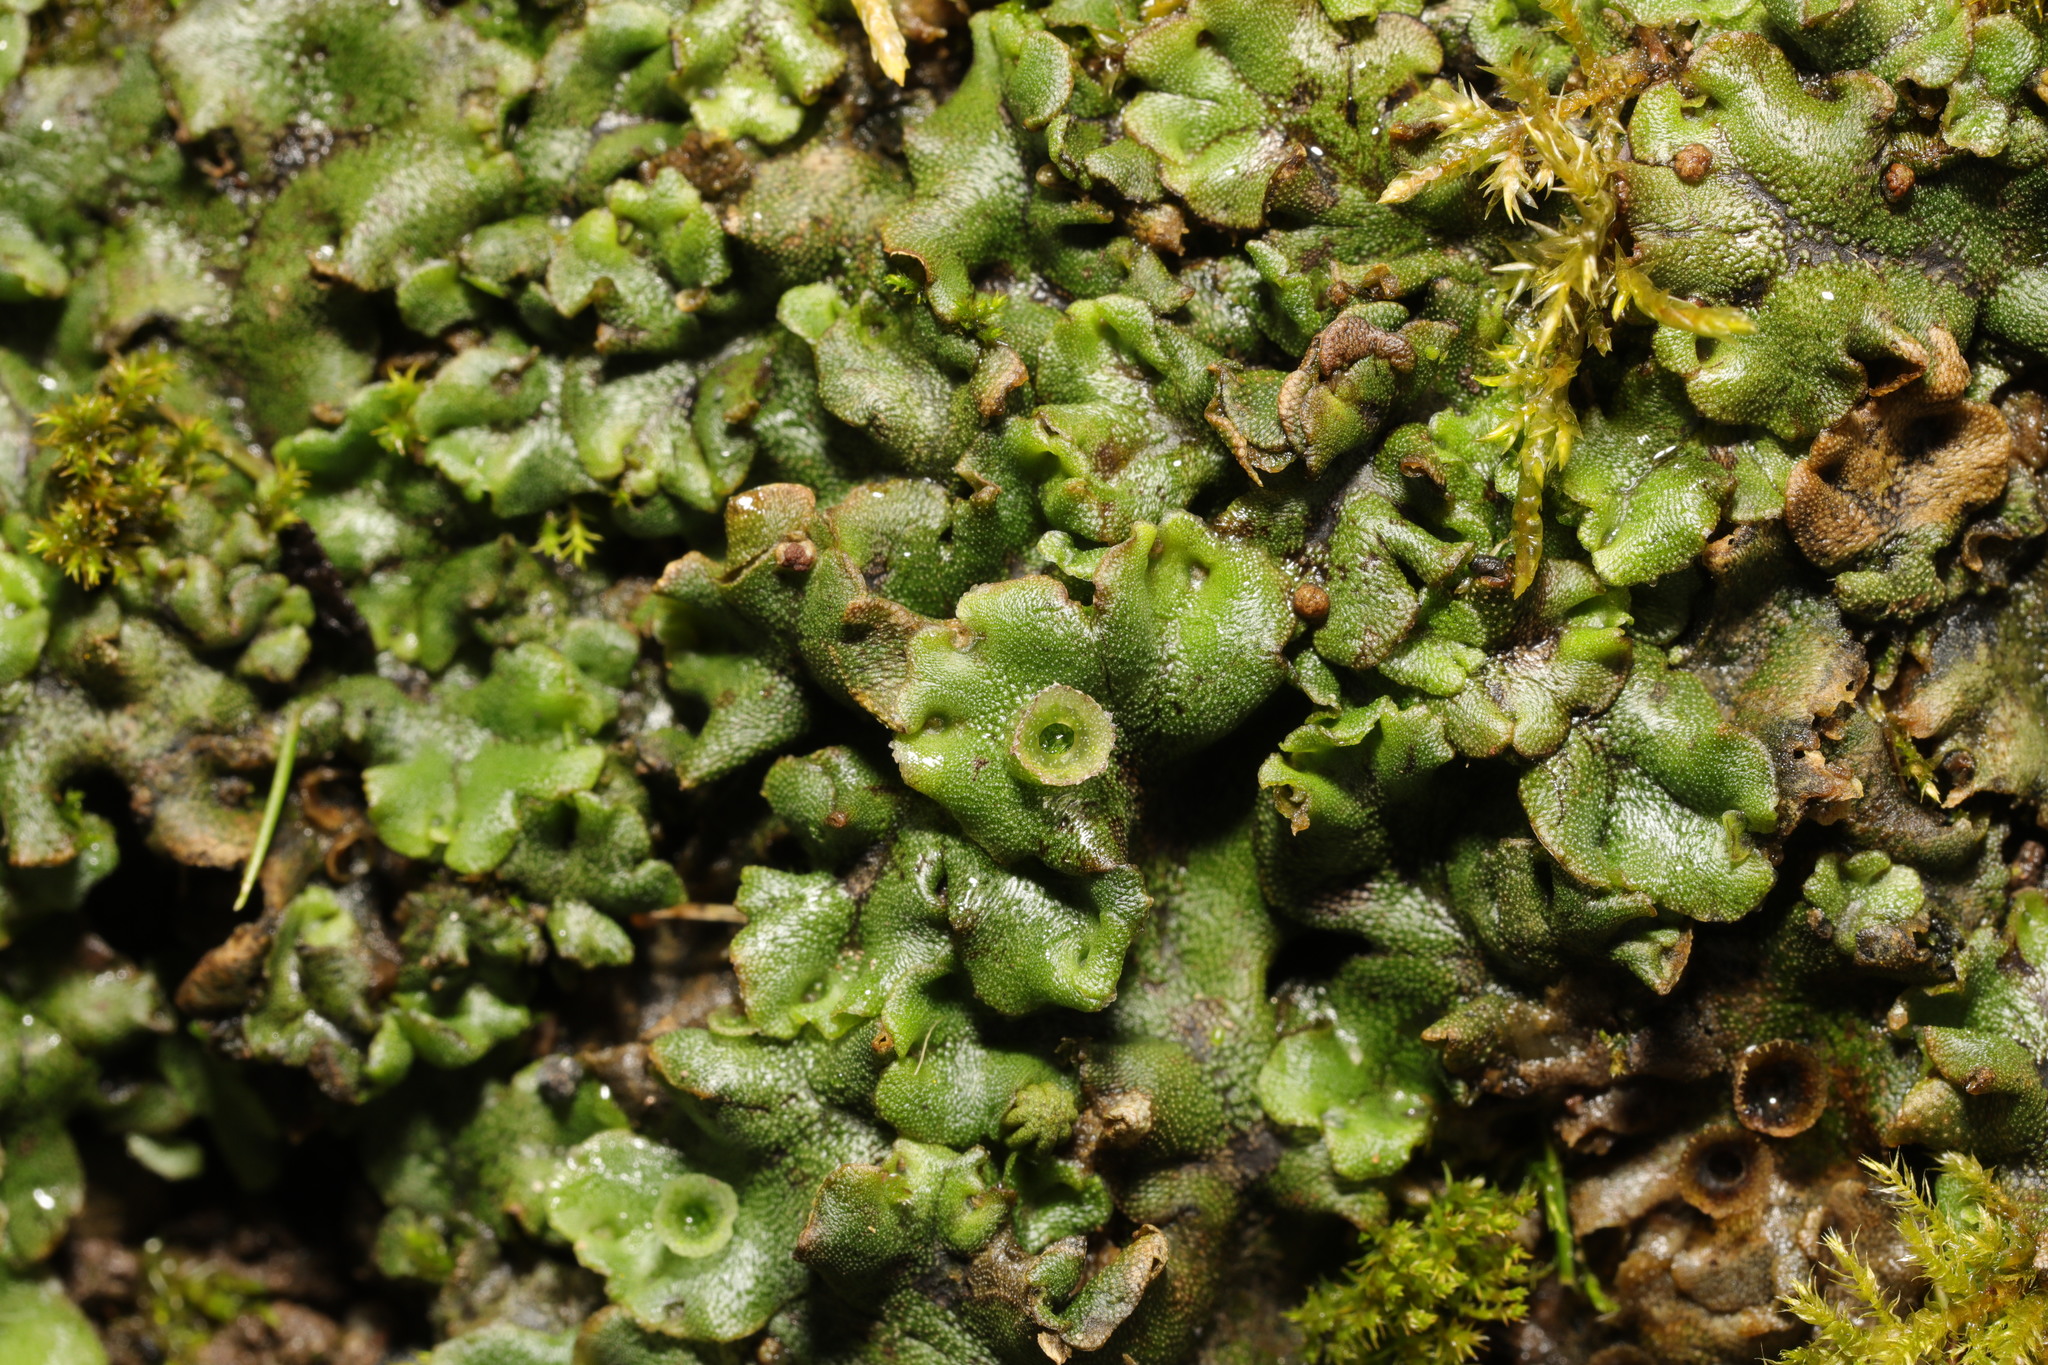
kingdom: Plantae
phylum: Marchantiophyta
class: Marchantiopsida
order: Marchantiales
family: Marchantiaceae
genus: Marchantia
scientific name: Marchantia polymorpha
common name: Common liverwort
